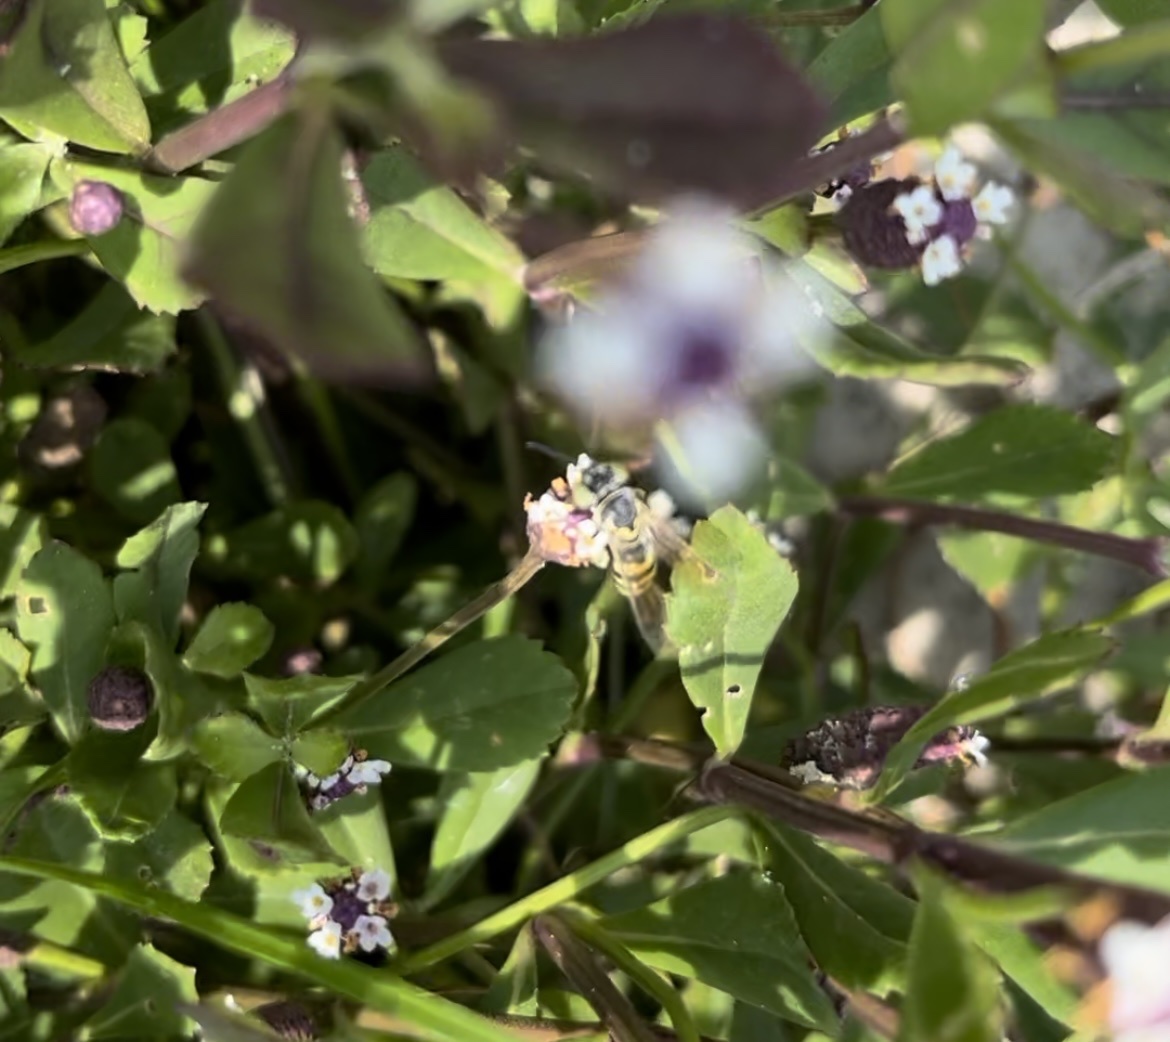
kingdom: Animalia
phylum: Arthropoda
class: Insecta
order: Hymenoptera
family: Crabronidae
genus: Microbembex
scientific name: Microbembex monodonta
